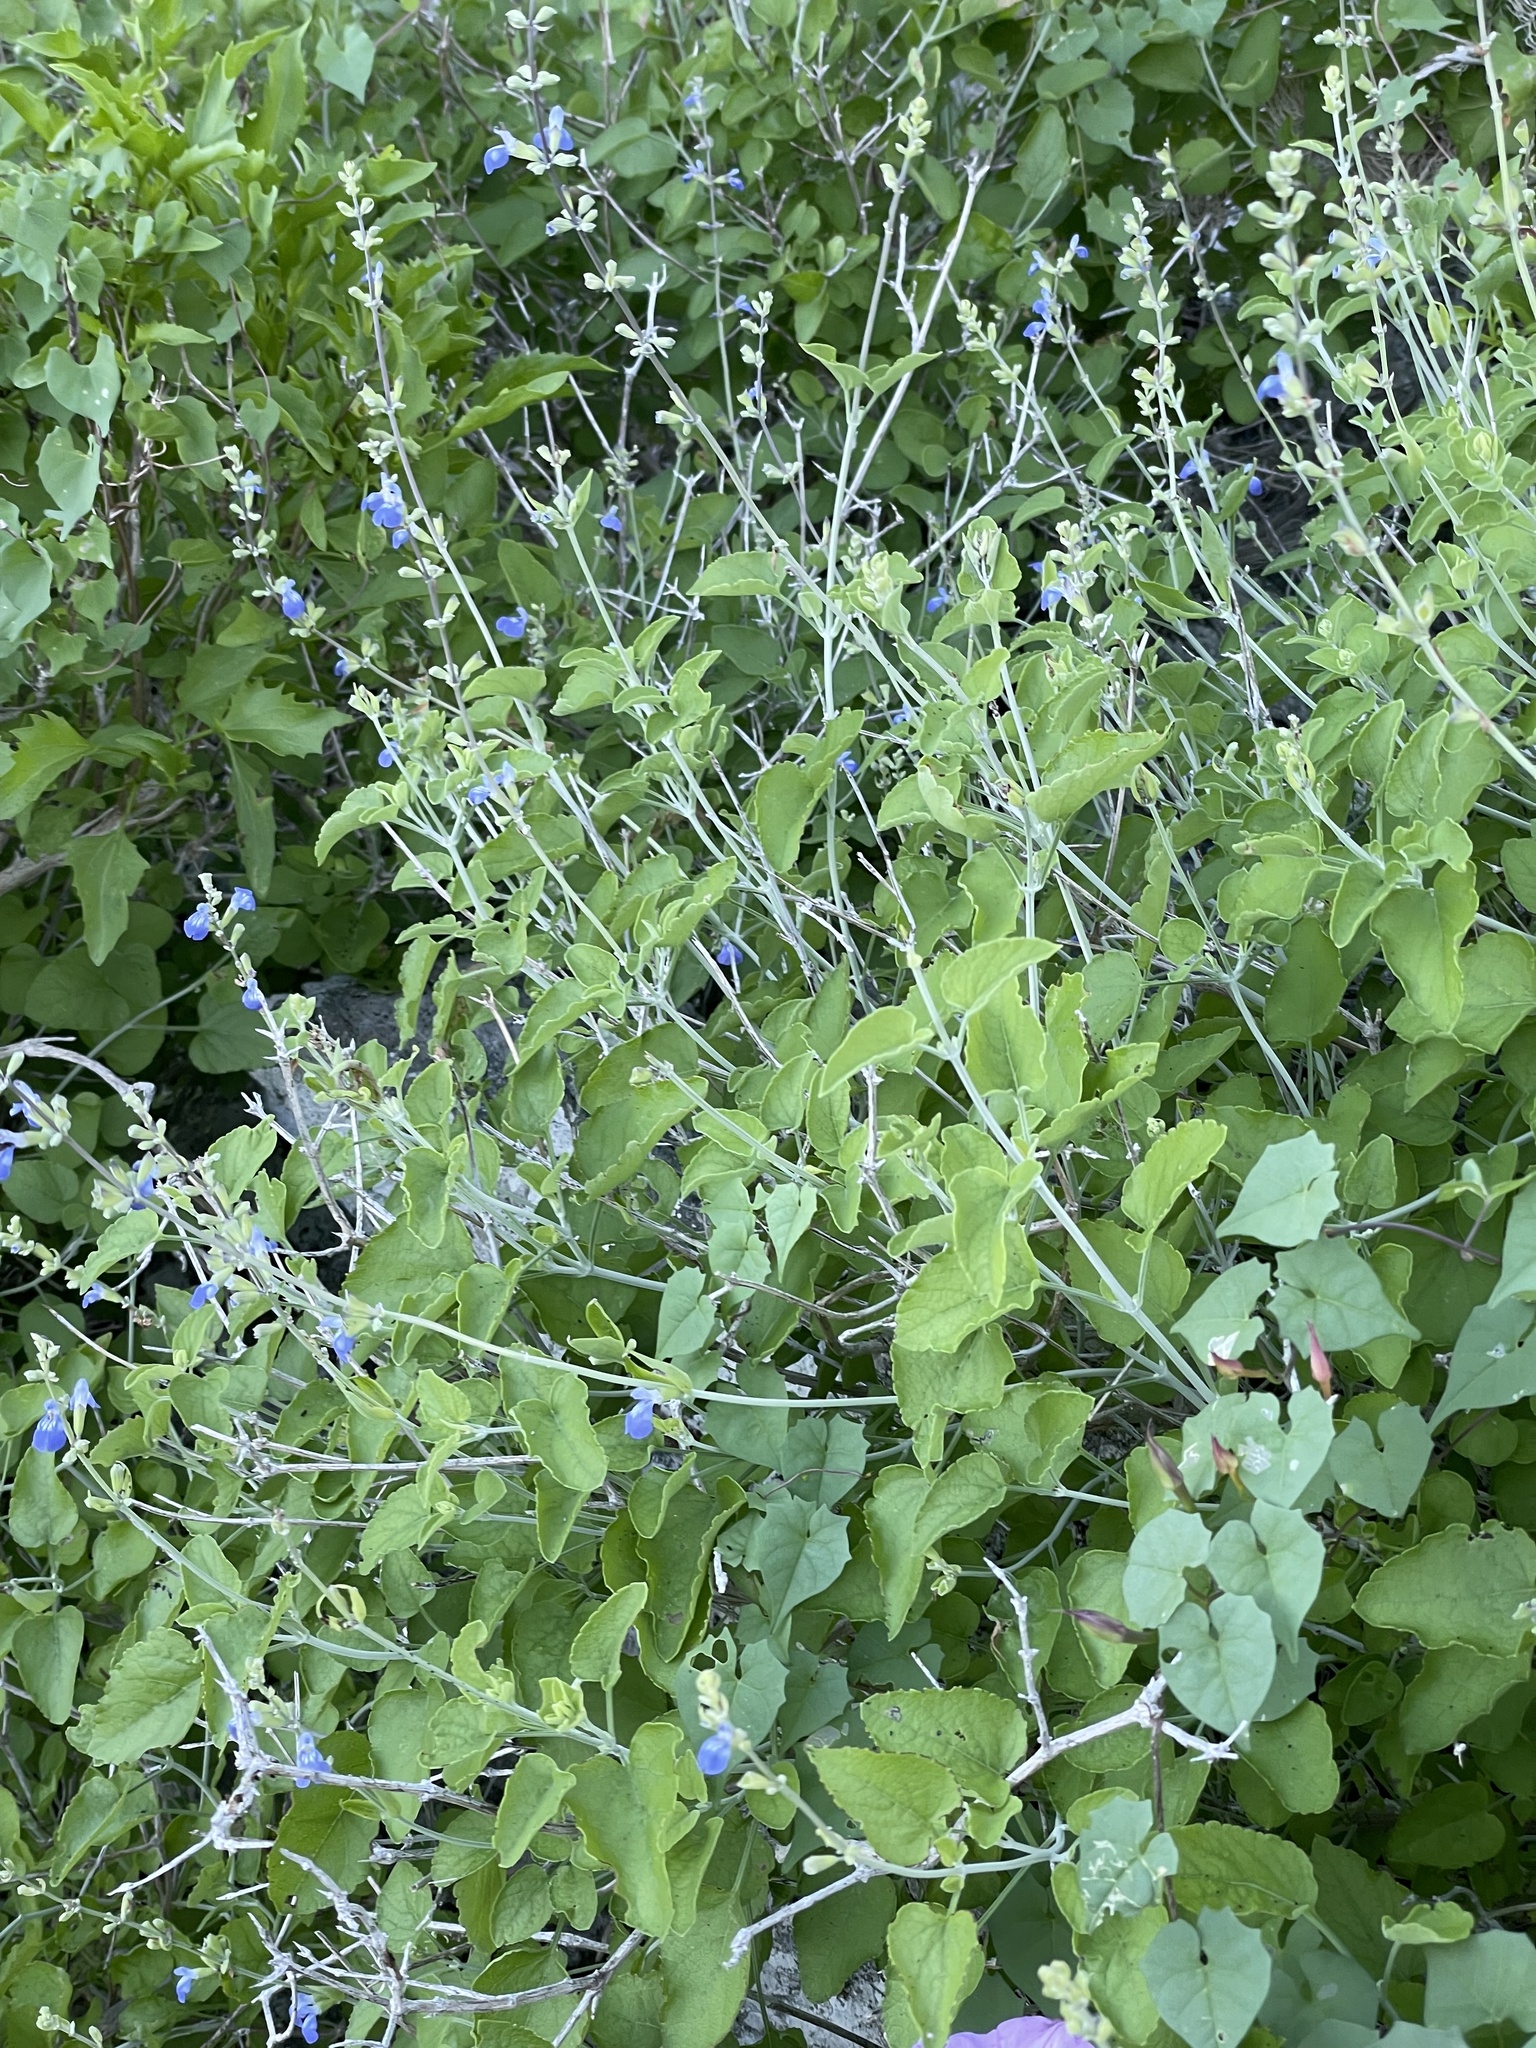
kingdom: Plantae
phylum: Tracheophyta
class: Magnoliopsida
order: Lamiales
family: Lamiaceae
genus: Salvia
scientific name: Salvia cedrosensis
